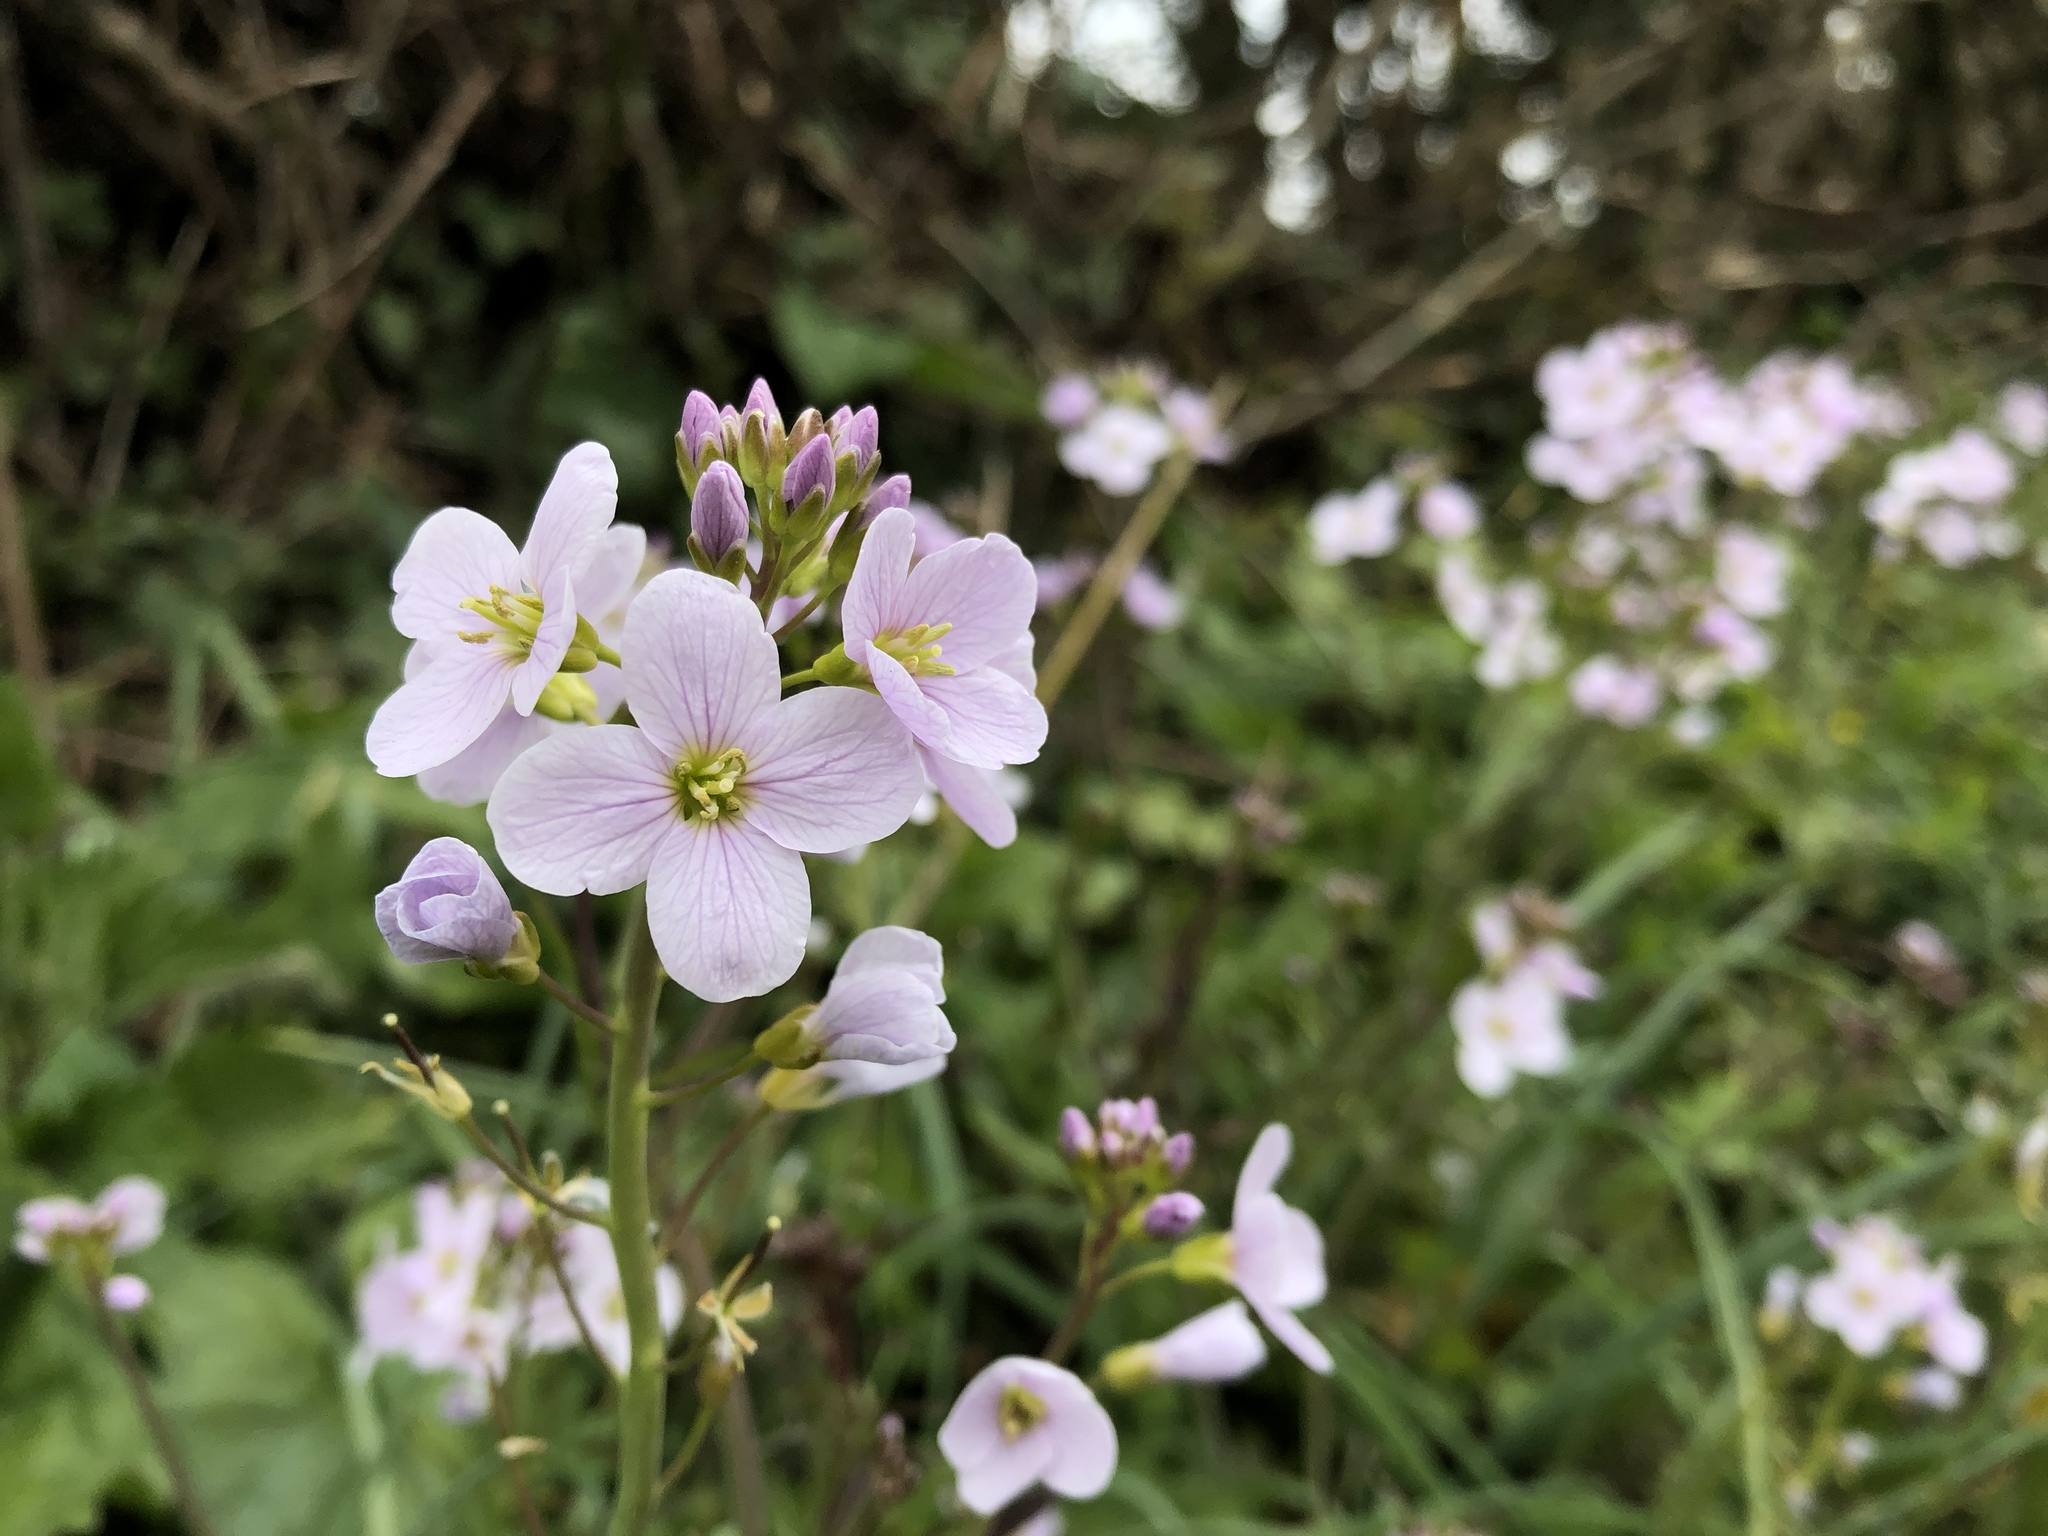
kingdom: Plantae
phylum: Tracheophyta
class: Magnoliopsida
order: Brassicales
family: Brassicaceae
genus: Cardamine
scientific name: Cardamine pratensis
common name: Cuckoo flower
